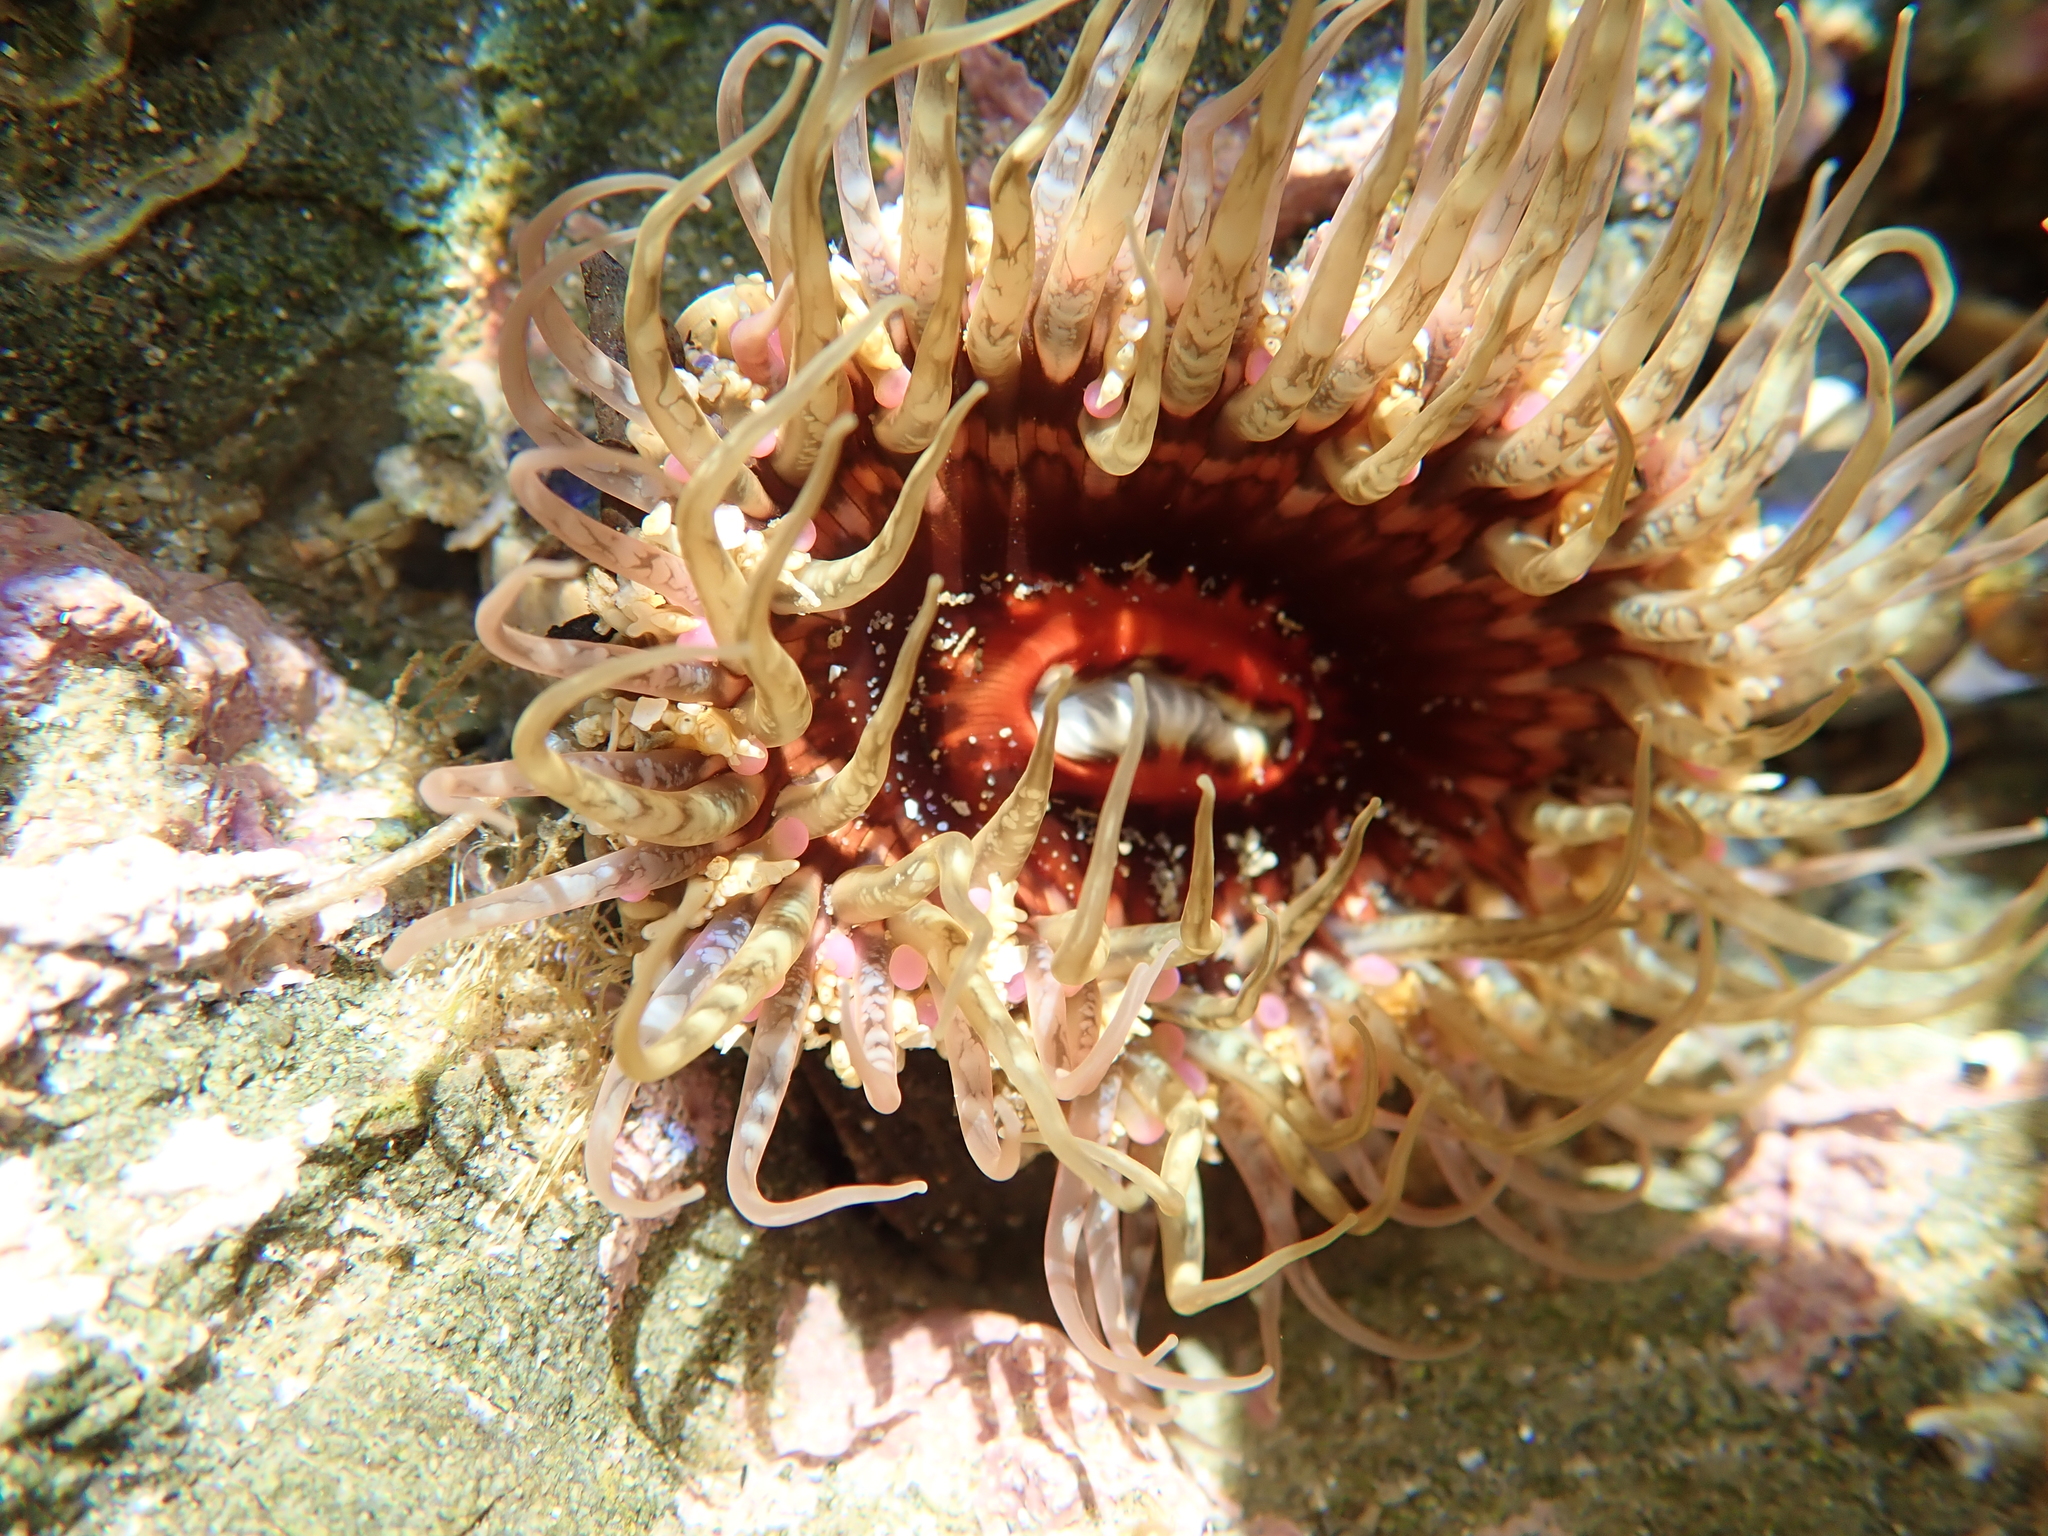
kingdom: Animalia
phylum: Cnidaria
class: Anthozoa
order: Actiniaria
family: Actiniidae
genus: Oulactis
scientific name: Oulactis muscosa
